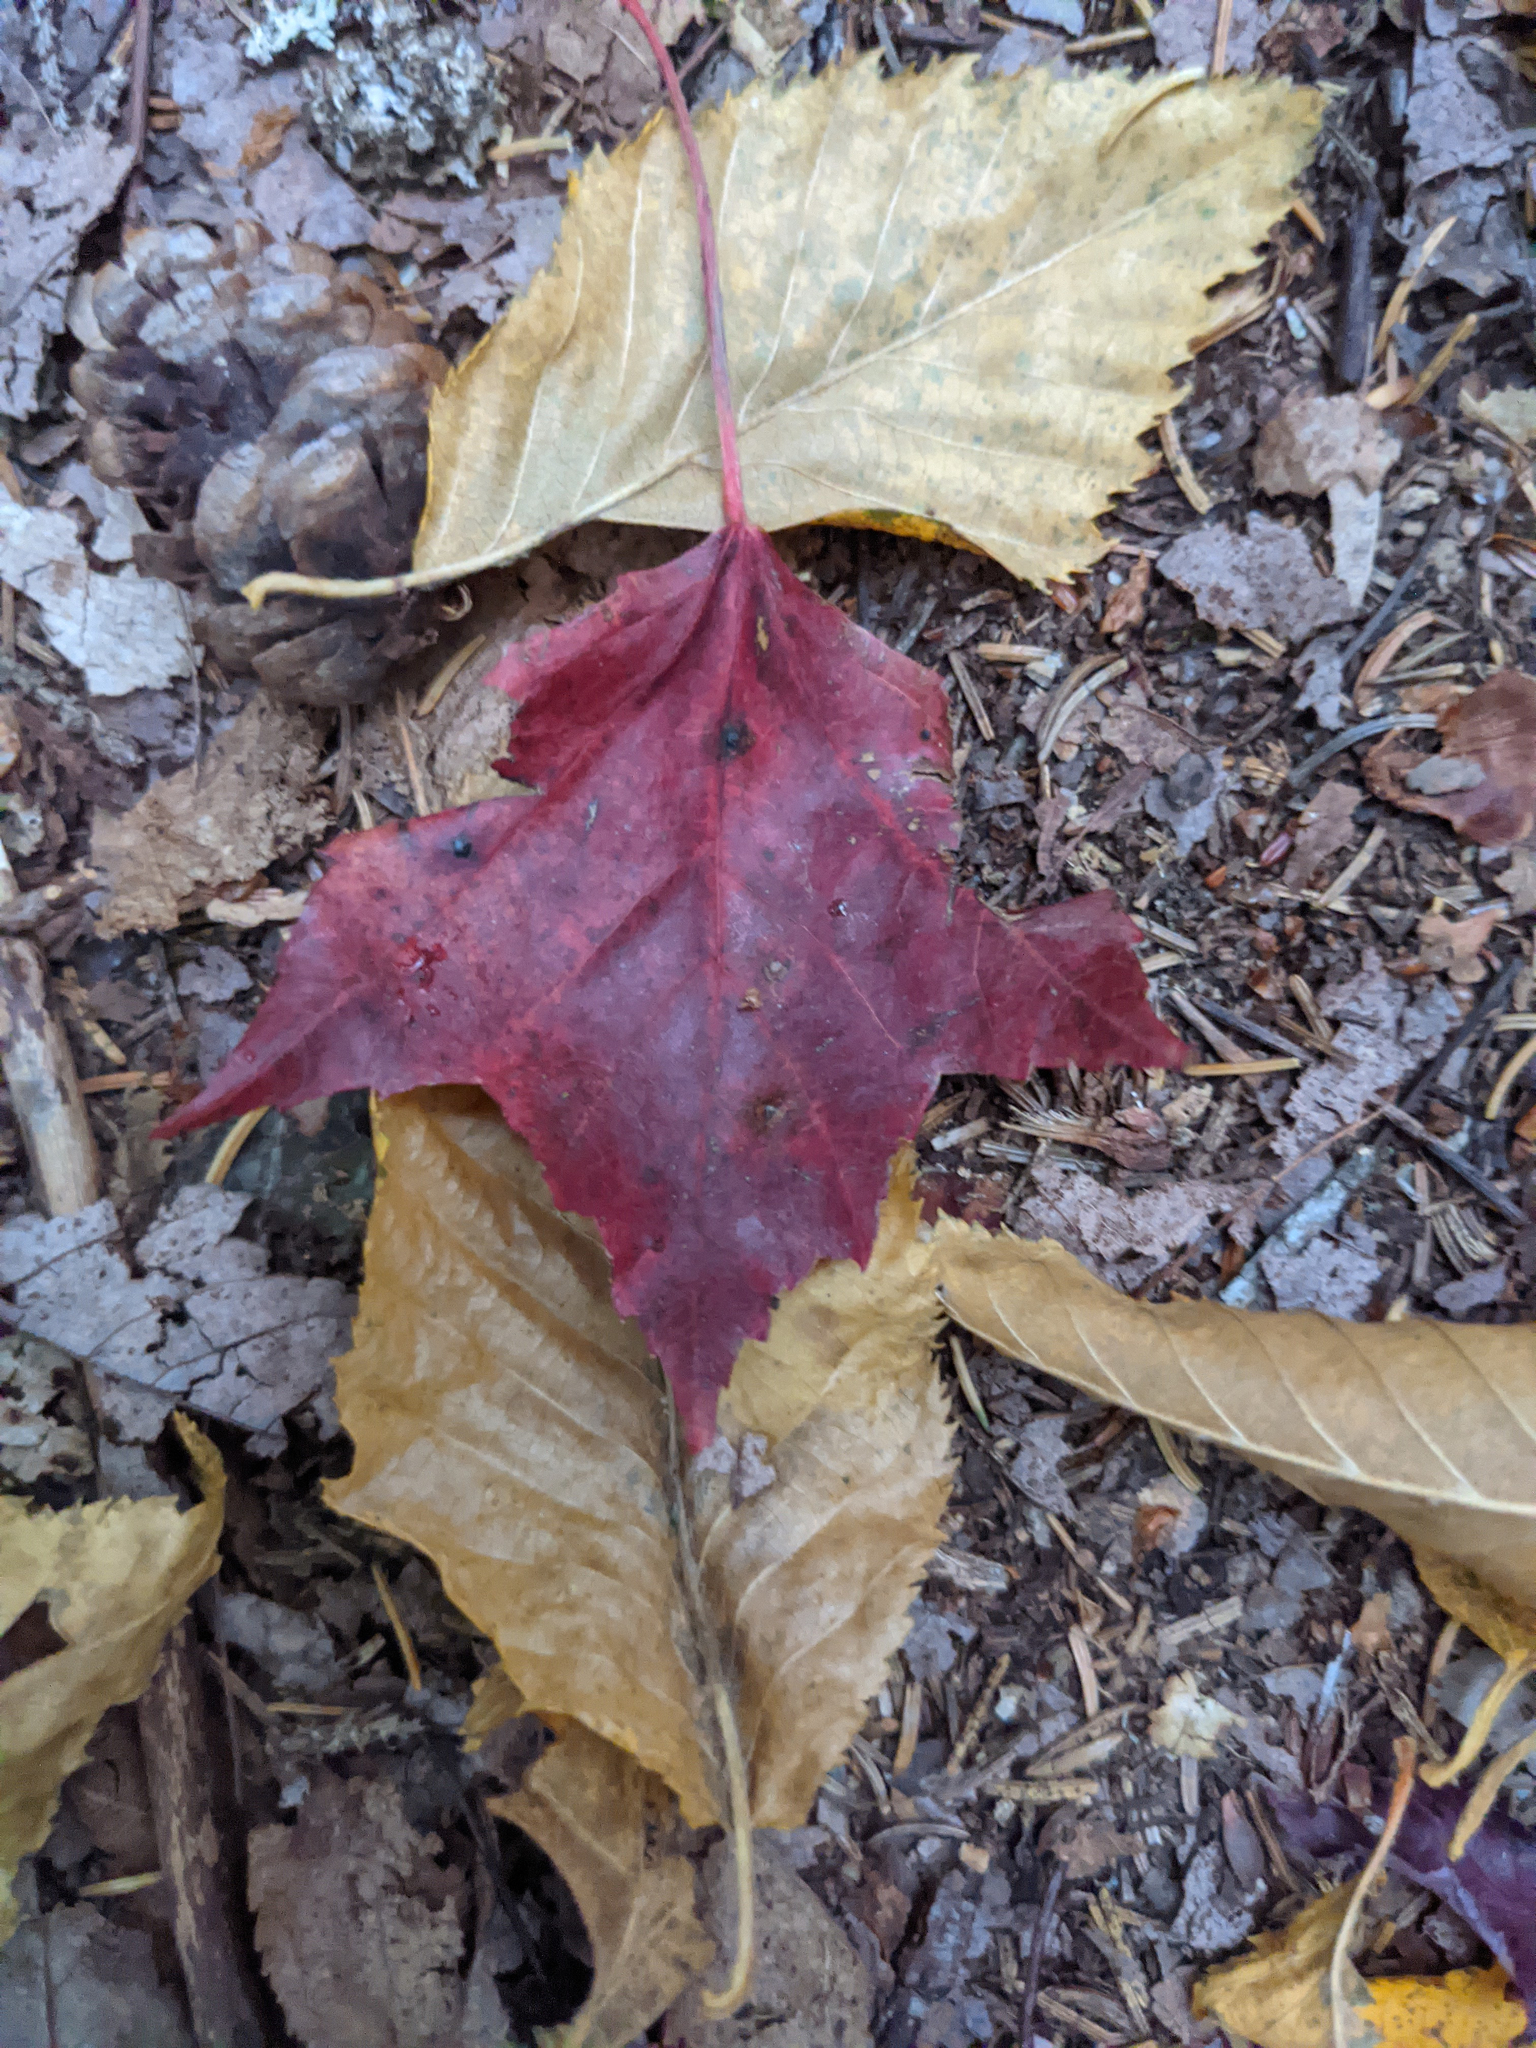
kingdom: Plantae
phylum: Tracheophyta
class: Magnoliopsida
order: Sapindales
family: Sapindaceae
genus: Acer
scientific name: Acer rubrum
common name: Red maple
